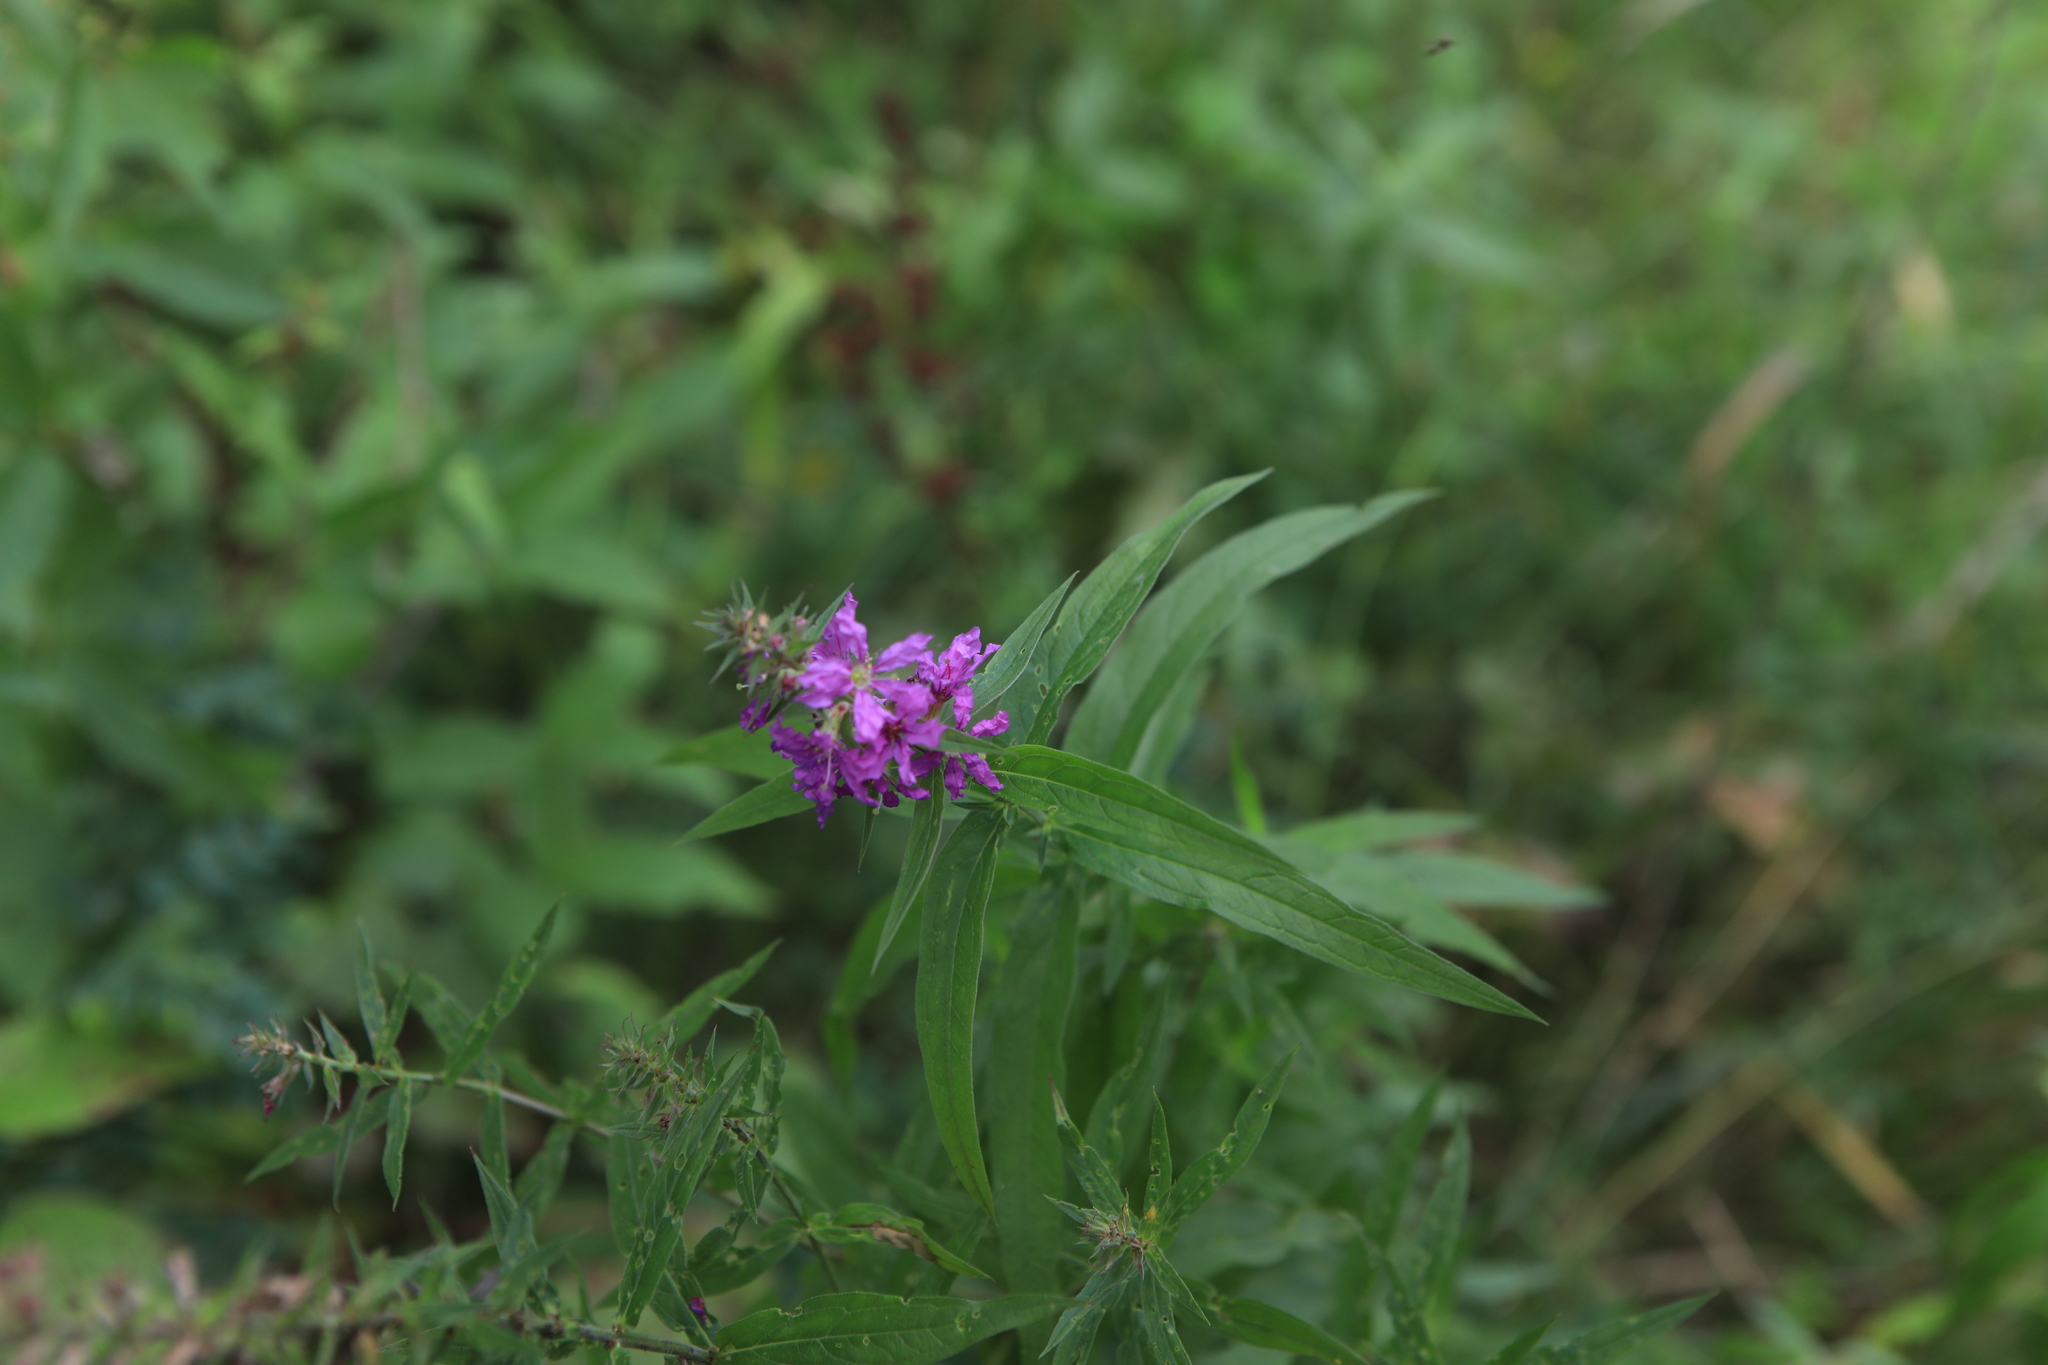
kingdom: Plantae
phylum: Tracheophyta
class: Magnoliopsida
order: Myrtales
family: Lythraceae
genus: Lythrum
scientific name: Lythrum salicaria
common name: Purple loosestrife
